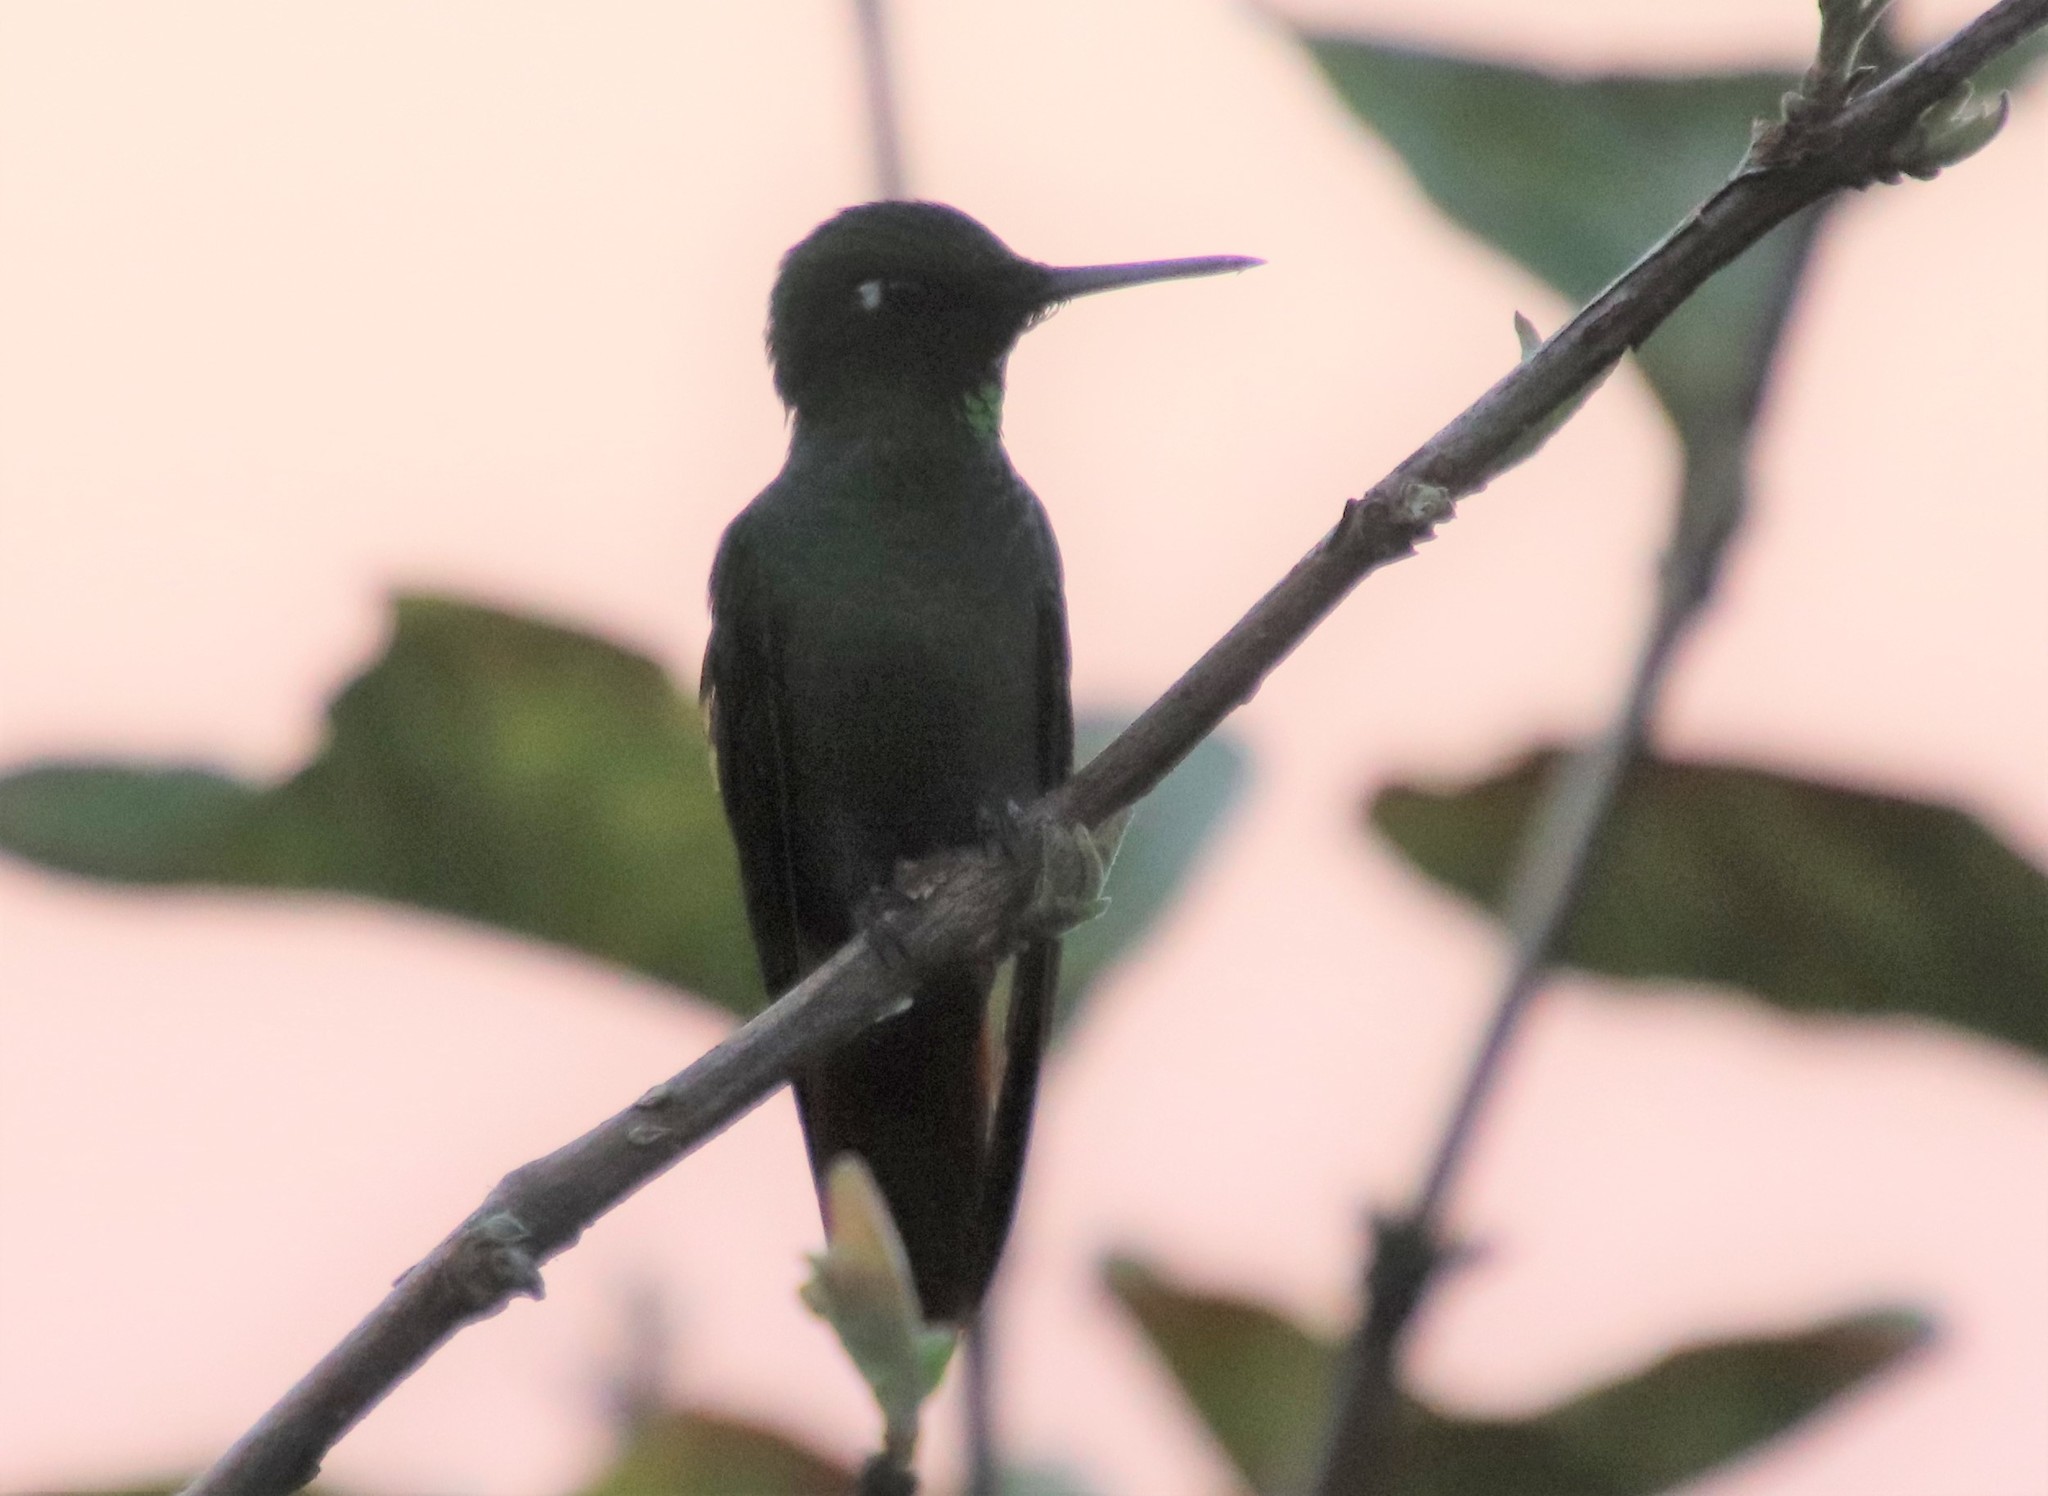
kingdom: Animalia
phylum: Chordata
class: Aves
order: Apodiformes
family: Trochilidae
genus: Clytolaema
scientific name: Clytolaema rubricauda
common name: Brazilian ruby
